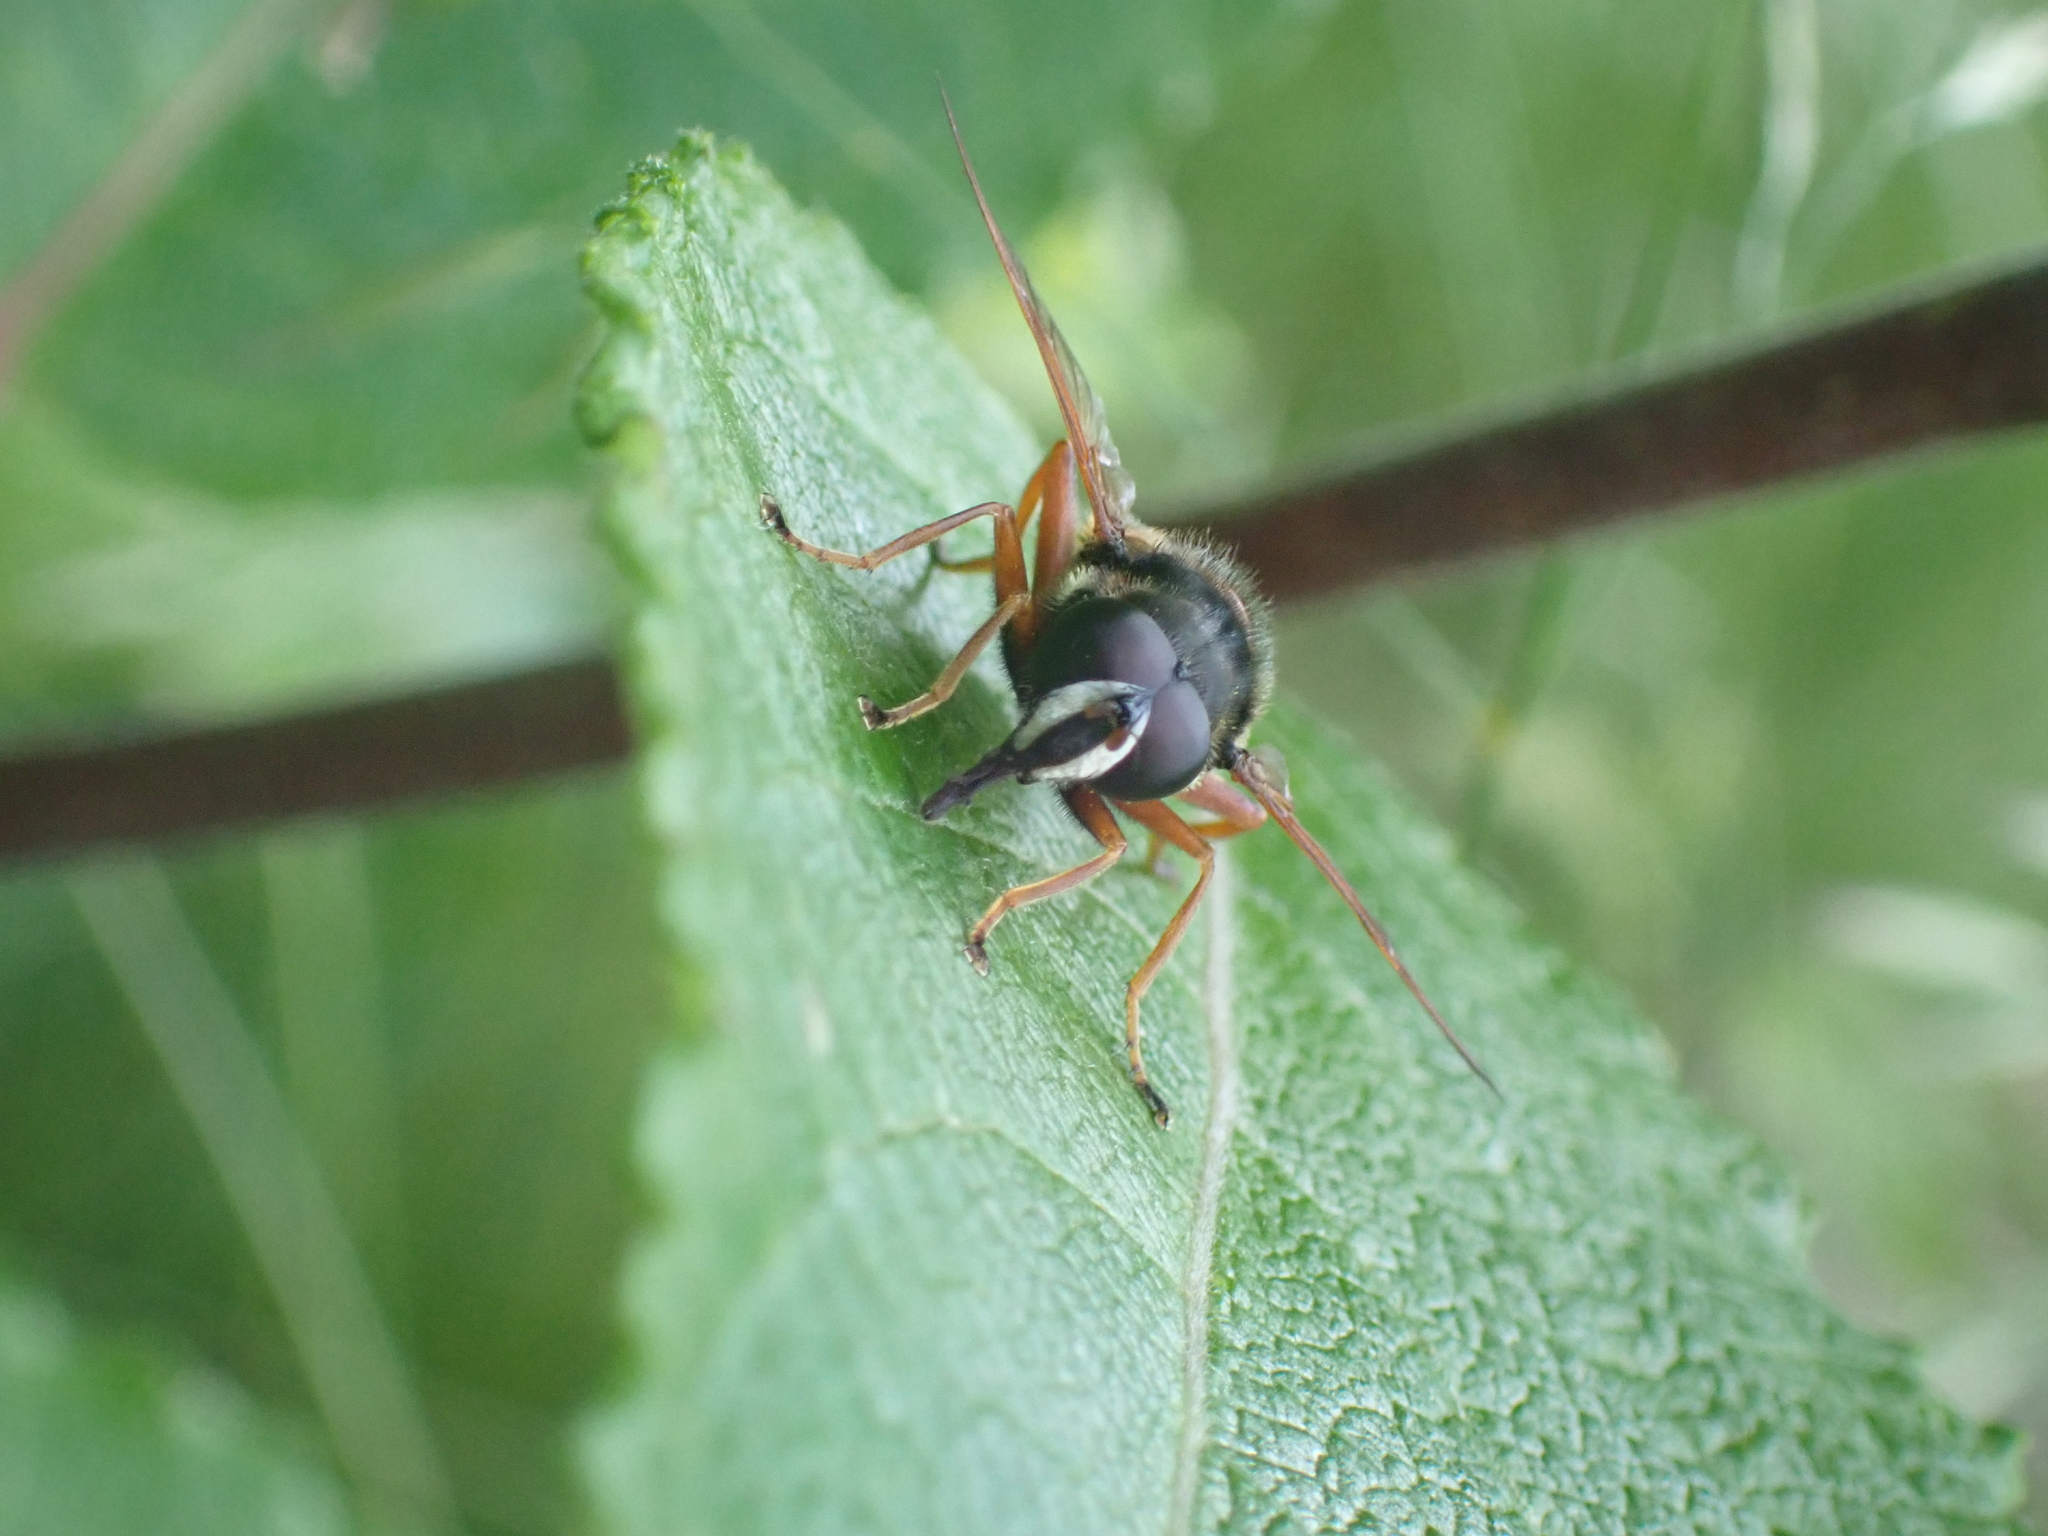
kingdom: Animalia
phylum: Arthropoda
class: Insecta
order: Diptera
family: Syrphidae
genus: Sericomyia
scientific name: Sericomyia lappona
